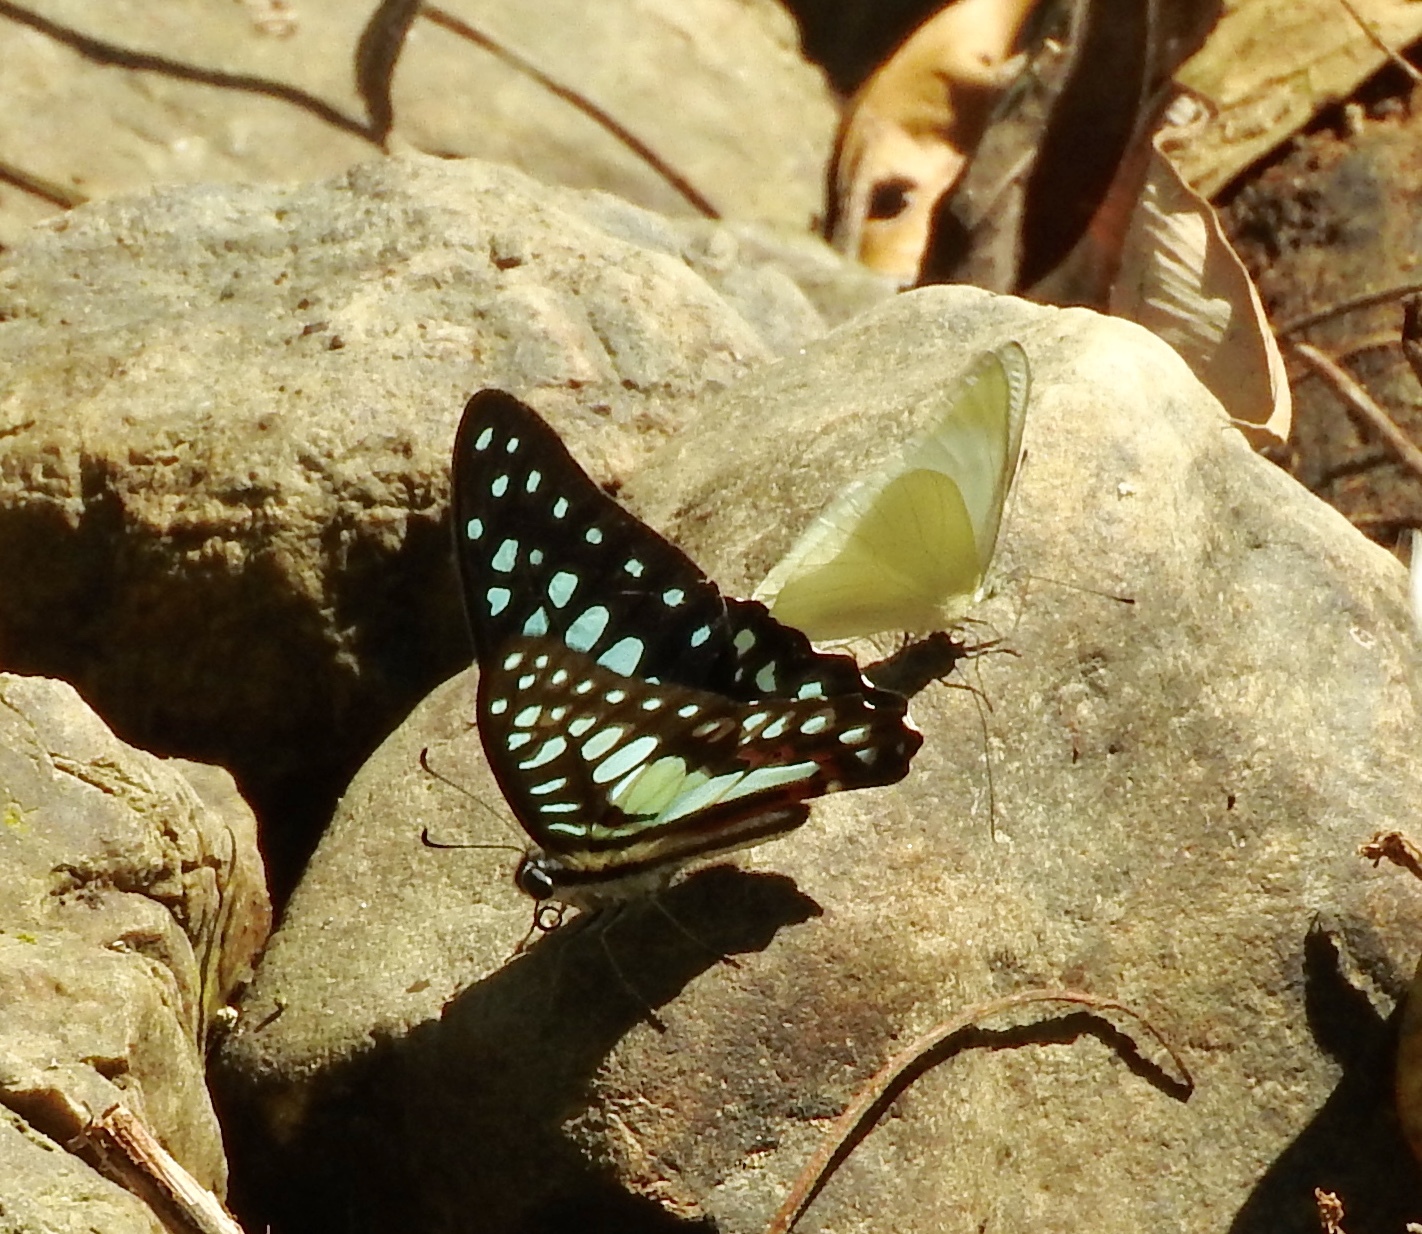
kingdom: Animalia
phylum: Arthropoda
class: Insecta
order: Lepidoptera
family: Papilionidae
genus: Graphium
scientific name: Graphium doson
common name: Common jay
